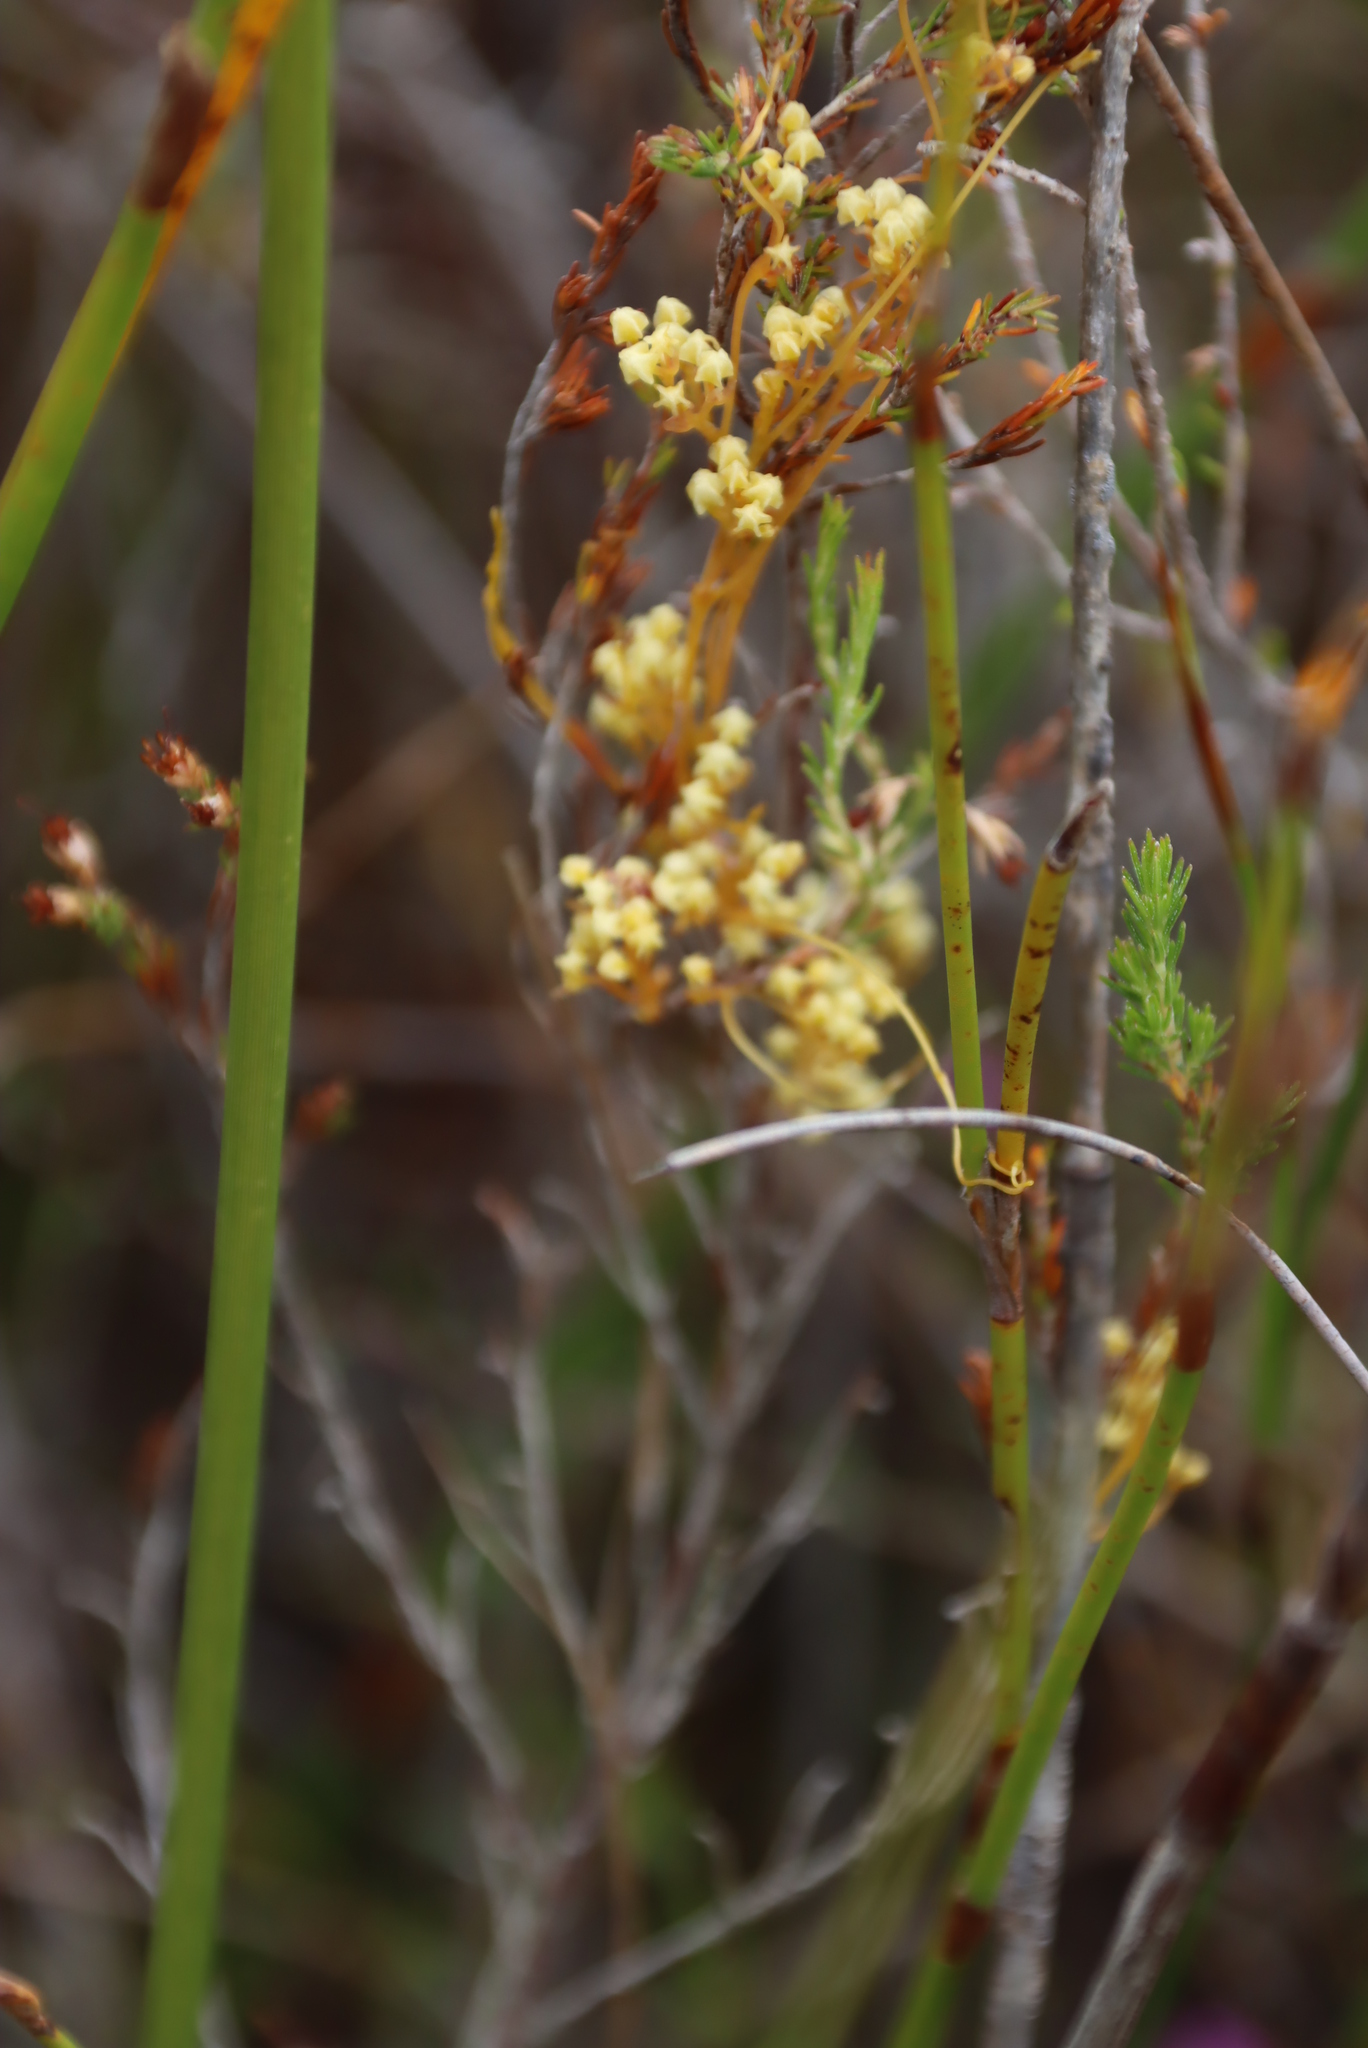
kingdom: Plantae
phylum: Tracheophyta
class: Magnoliopsida
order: Solanales
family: Convolvulaceae
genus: Cuscuta
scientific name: Cuscuta angulata
